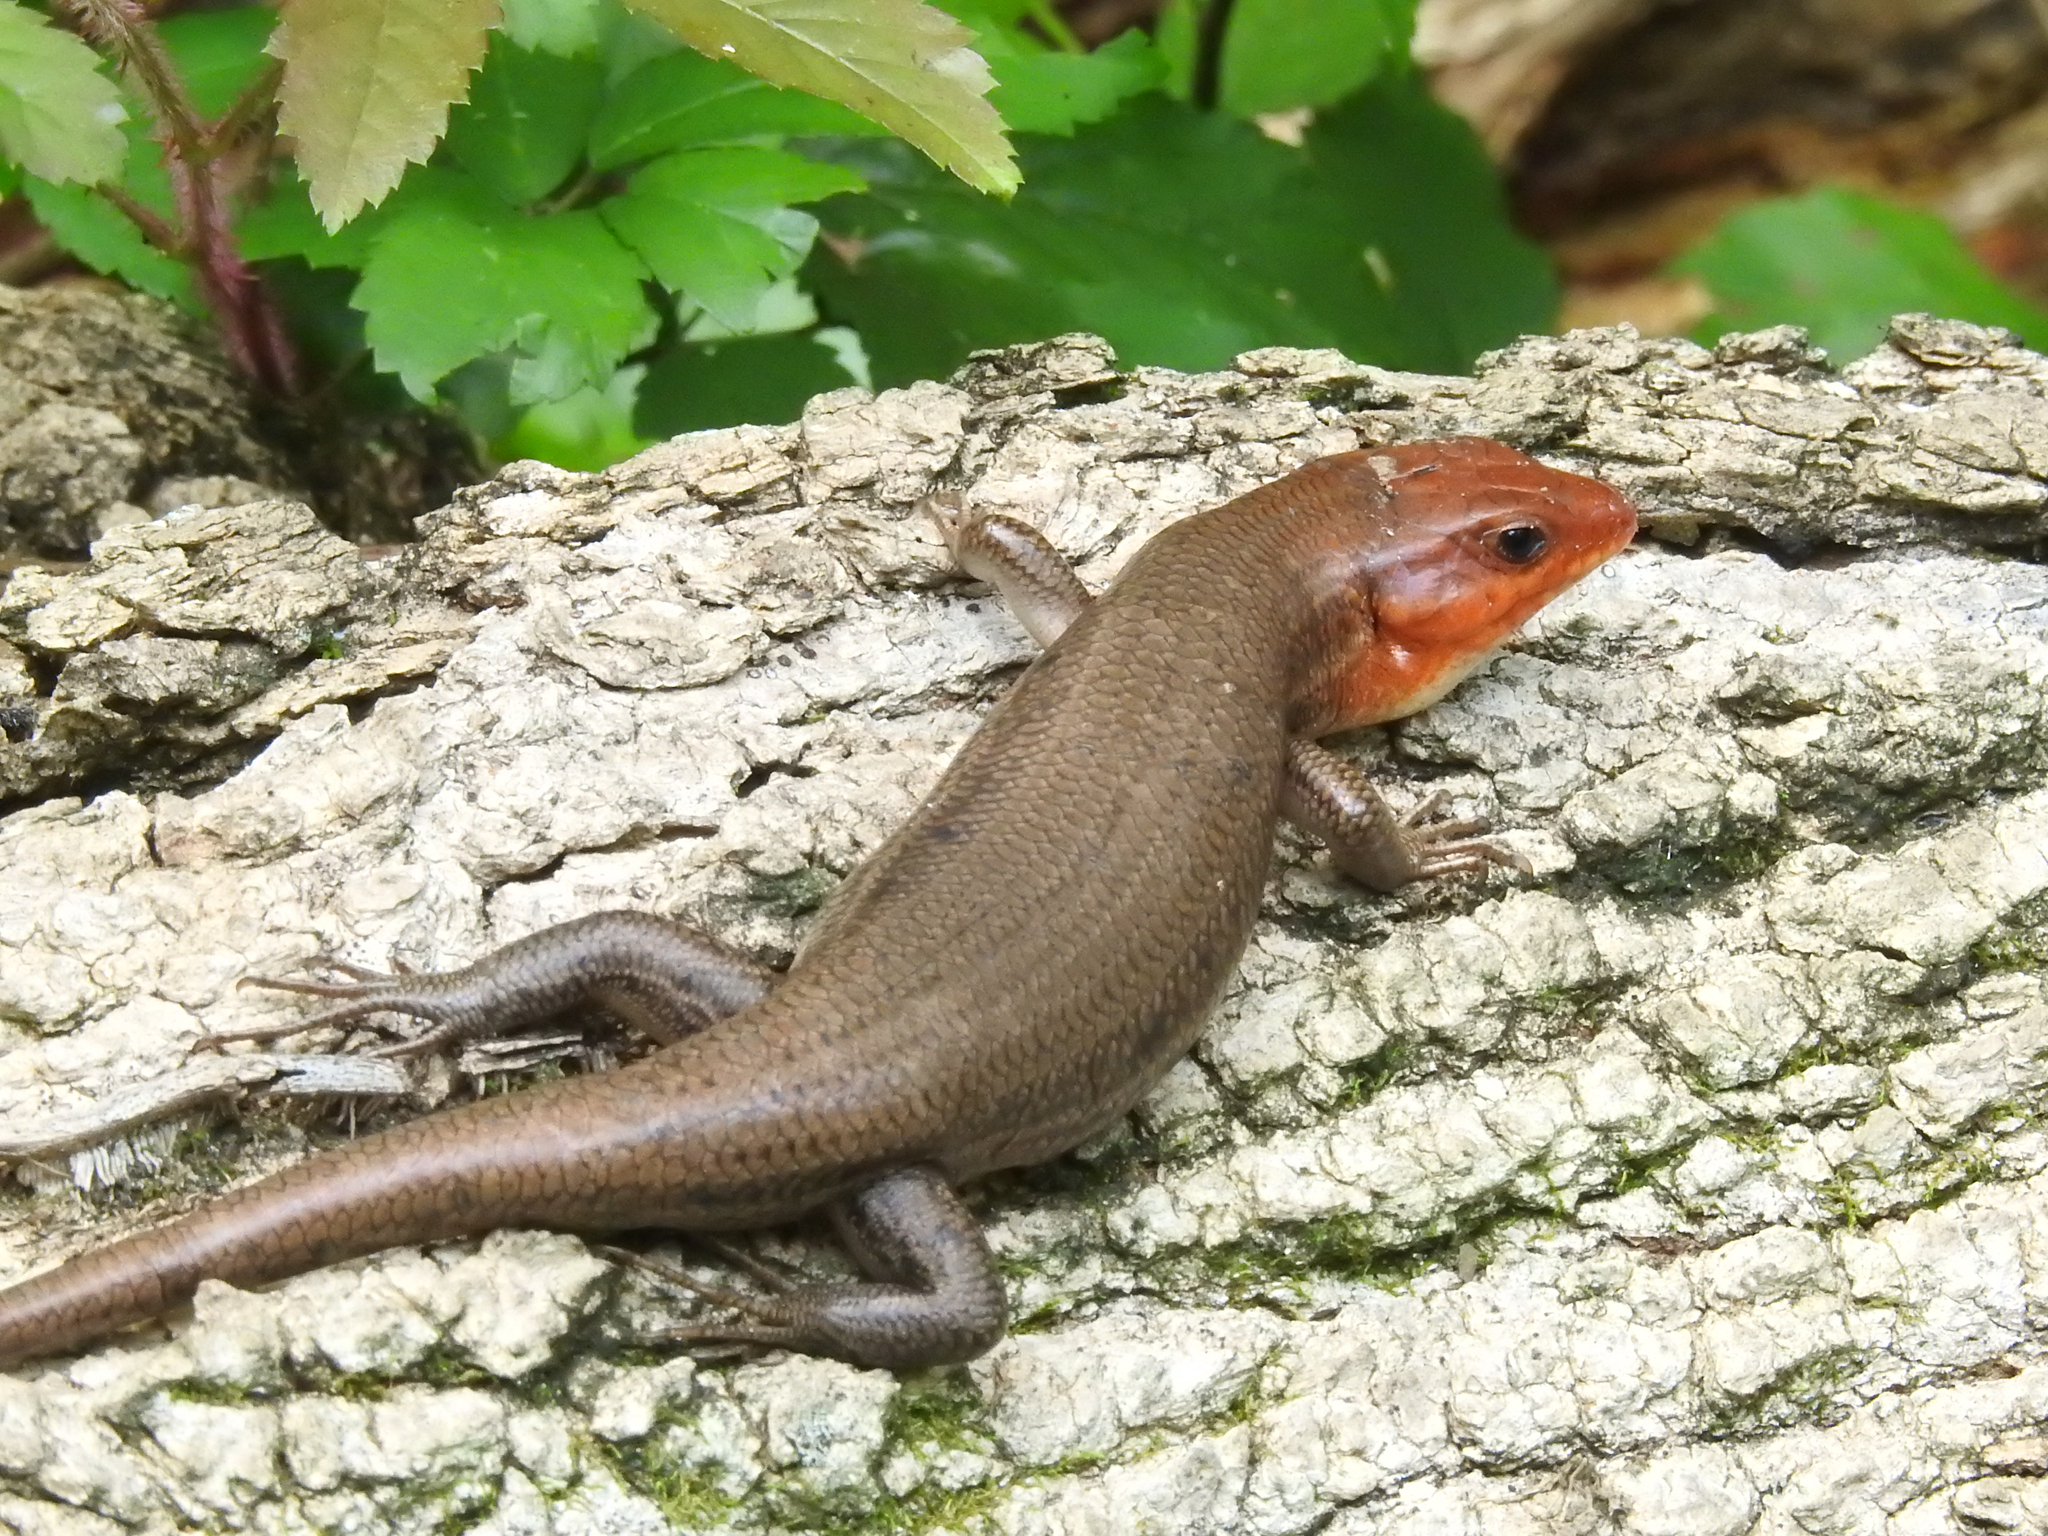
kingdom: Animalia
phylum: Chordata
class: Squamata
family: Scincidae
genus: Plestiodon
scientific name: Plestiodon laticeps
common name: Broadhead skink
